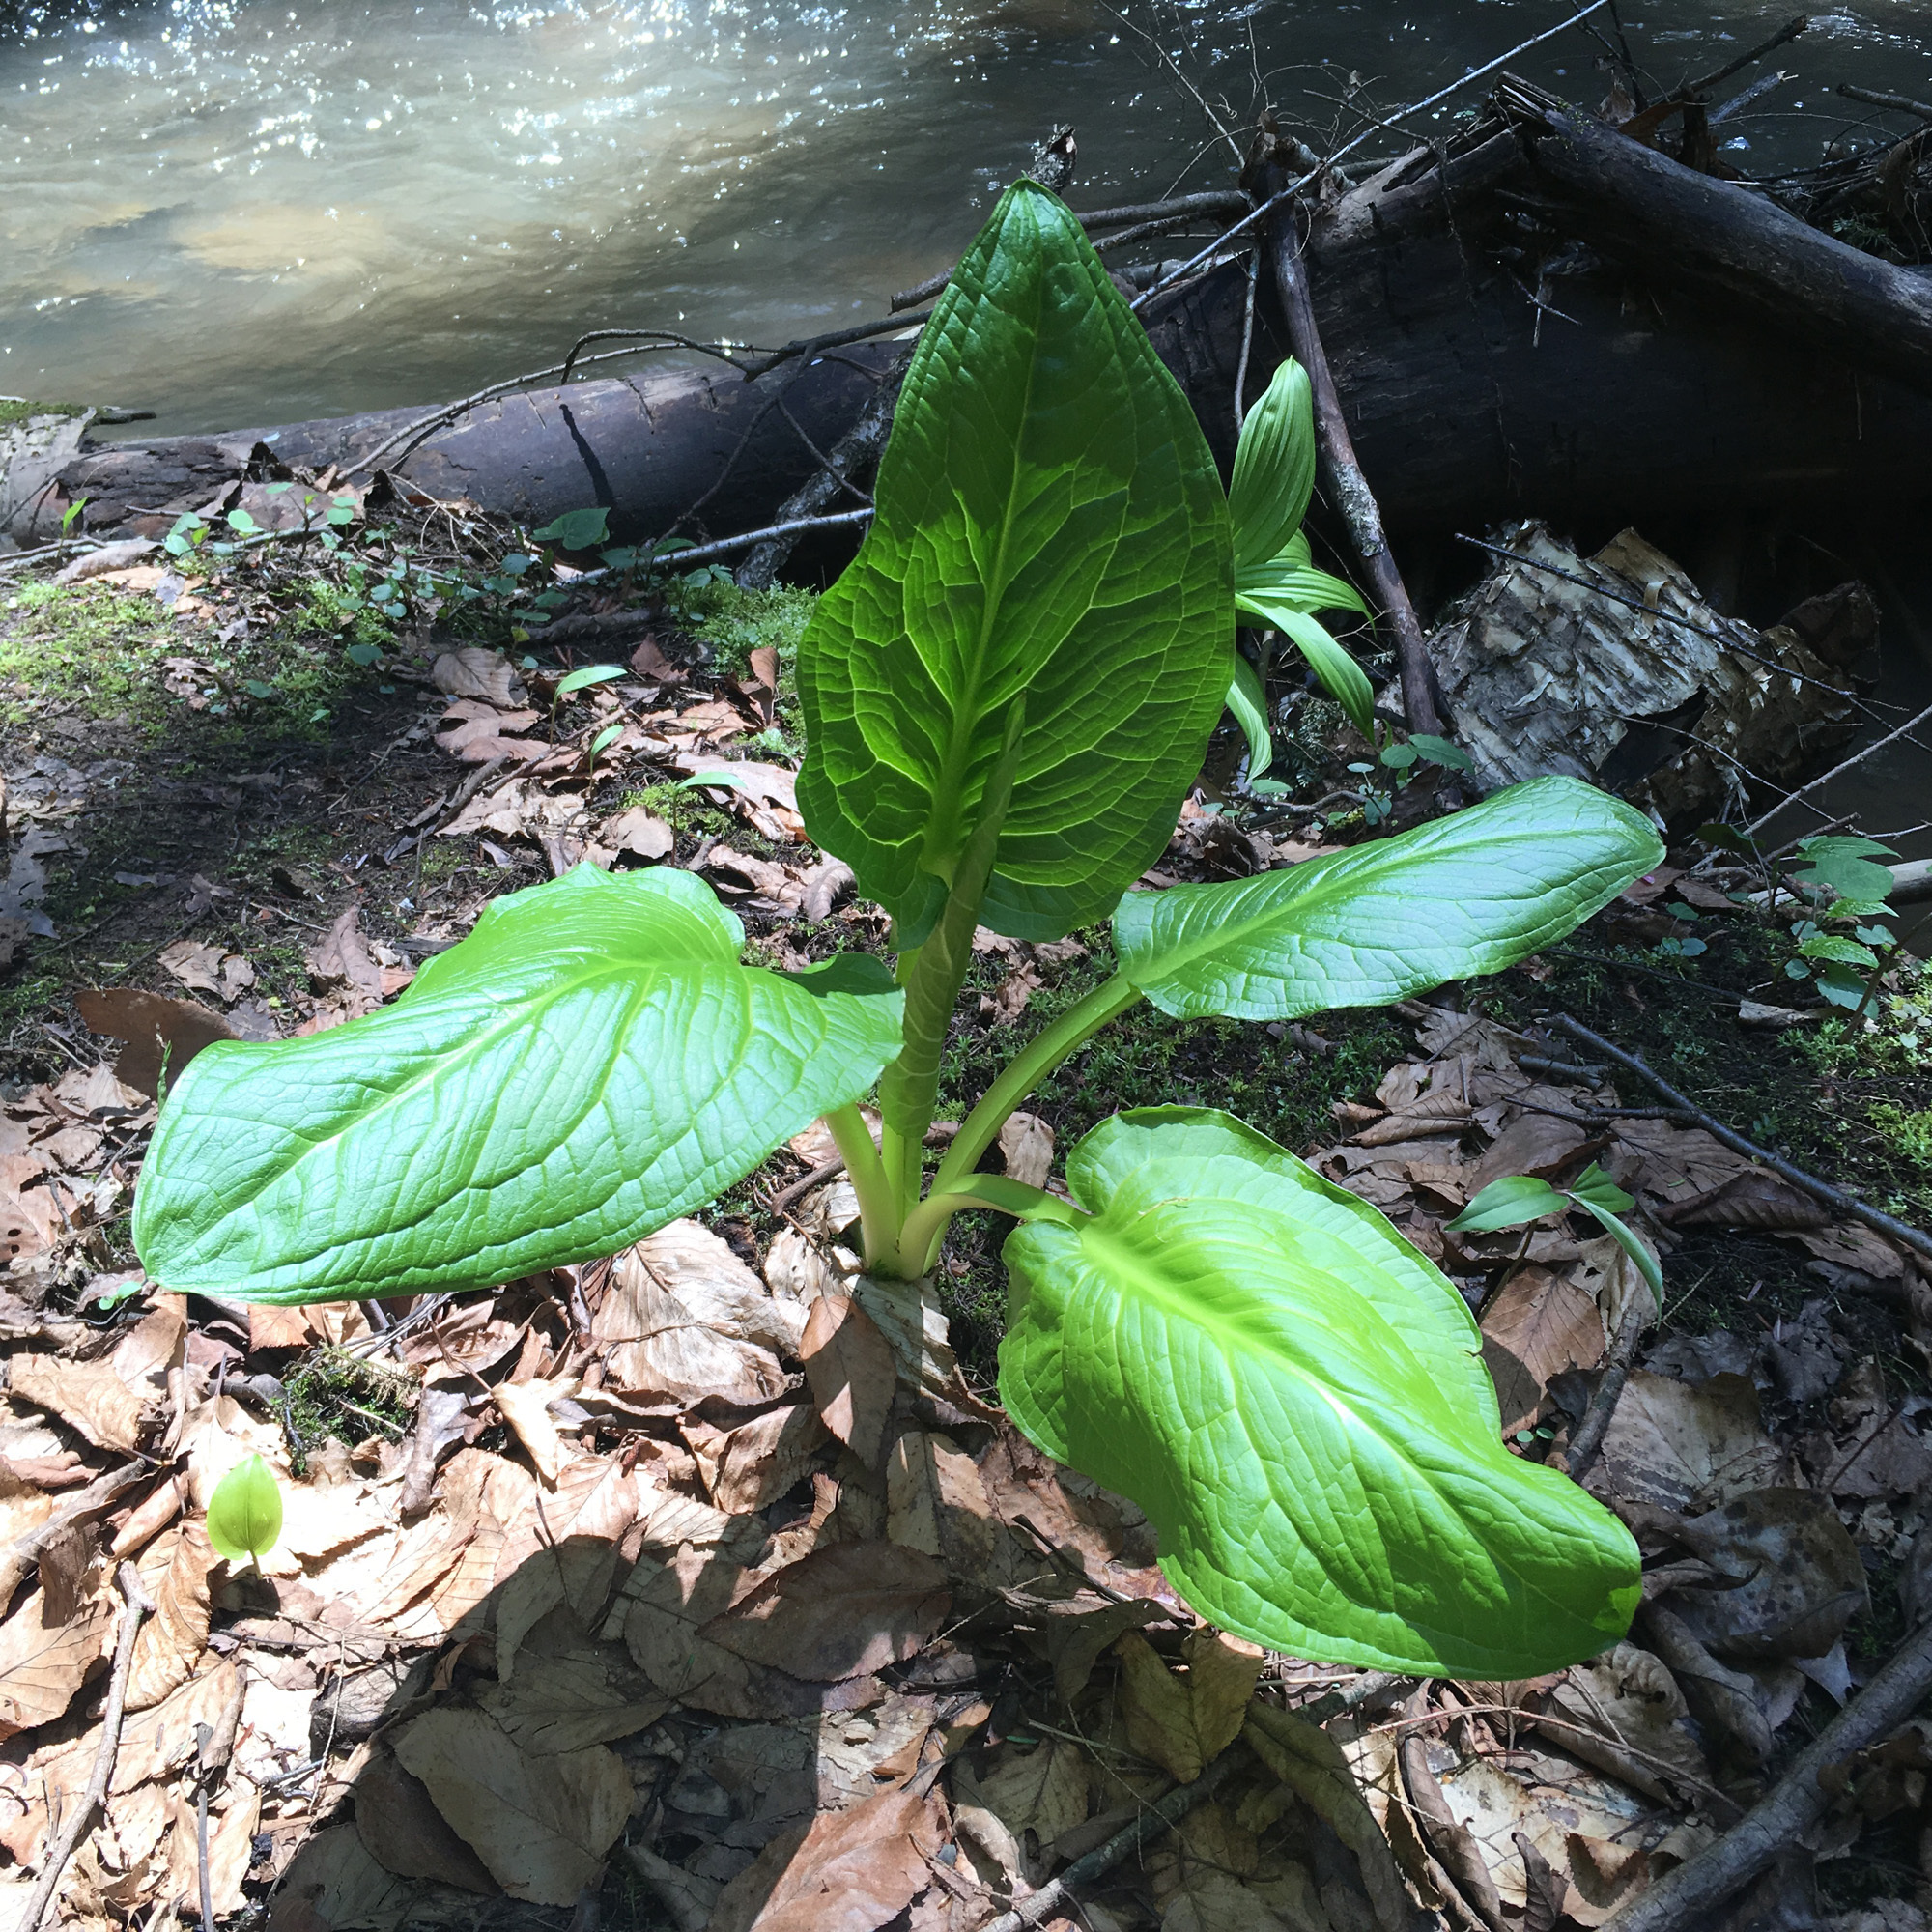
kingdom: Plantae
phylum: Tracheophyta
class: Liliopsida
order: Alismatales
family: Araceae
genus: Symplocarpus
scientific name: Symplocarpus foetidus
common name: Eastern skunk cabbage
